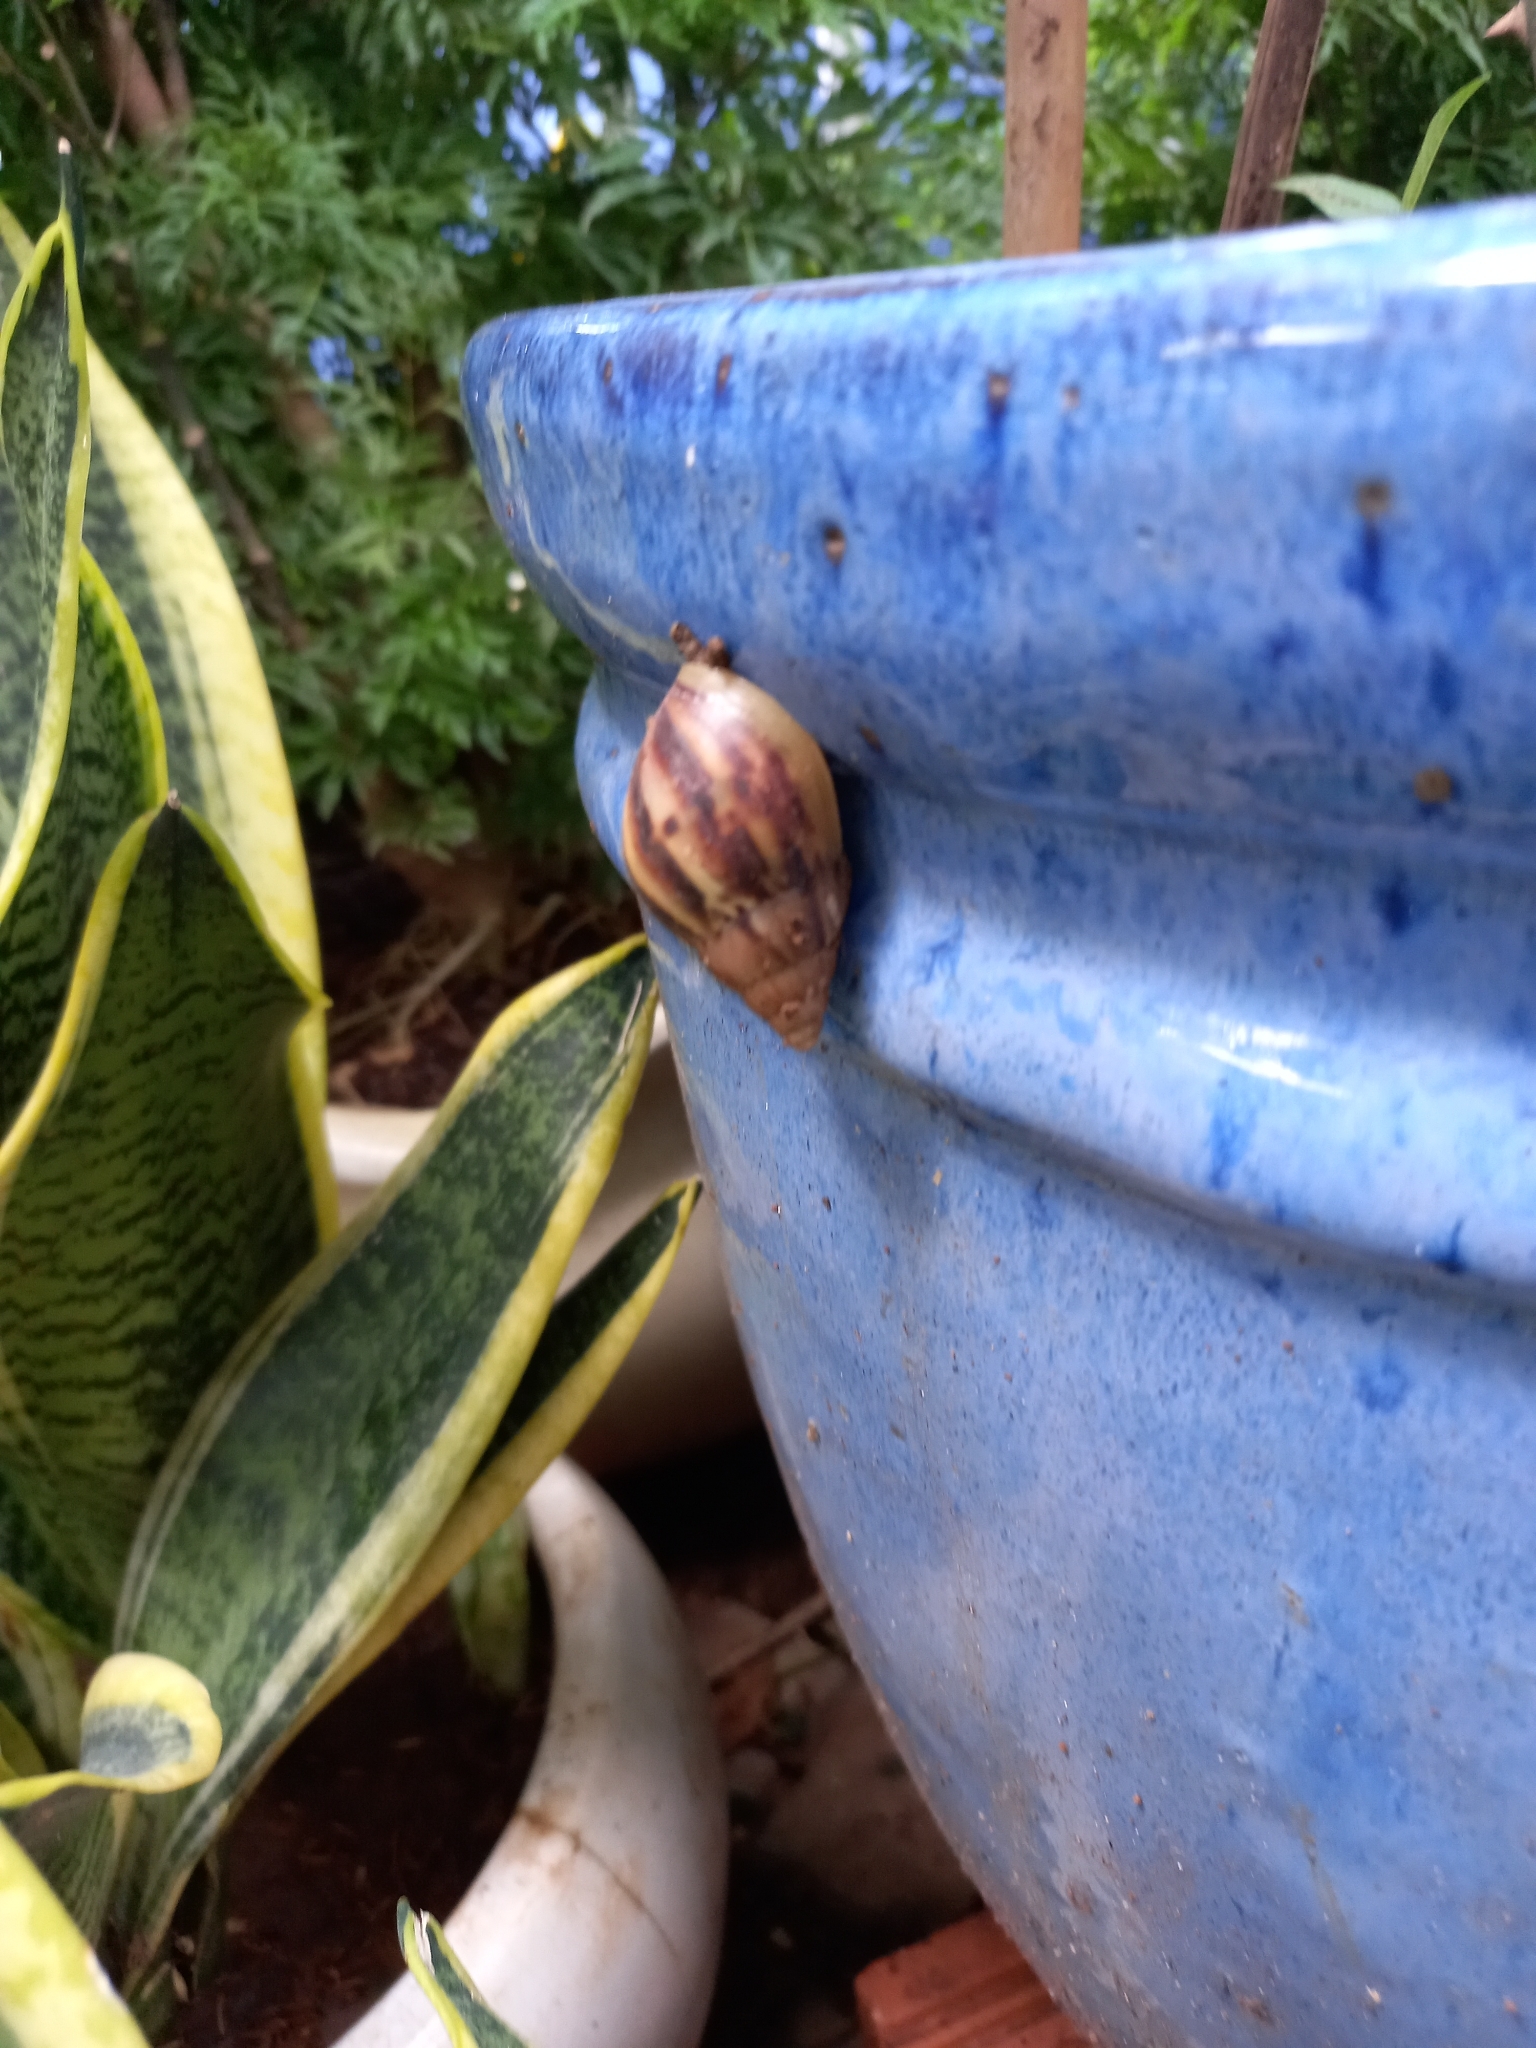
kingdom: Animalia
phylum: Mollusca
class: Gastropoda
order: Stylommatophora
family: Achatinidae
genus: Lissachatina
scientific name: Lissachatina fulica
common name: Giant african snail
